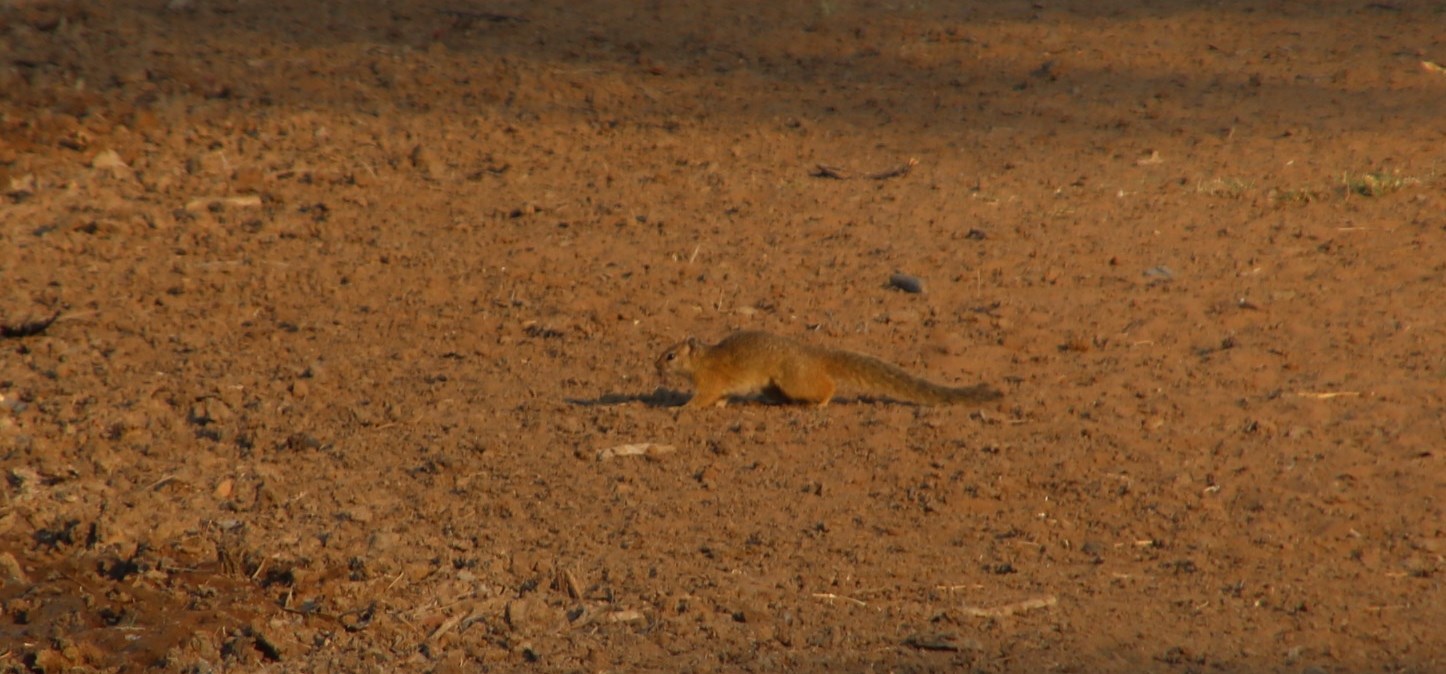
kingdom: Animalia
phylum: Chordata
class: Mammalia
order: Rodentia
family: Sciuridae
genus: Paraxerus
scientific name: Paraxerus cepapi
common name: Smith's bush squirrel
